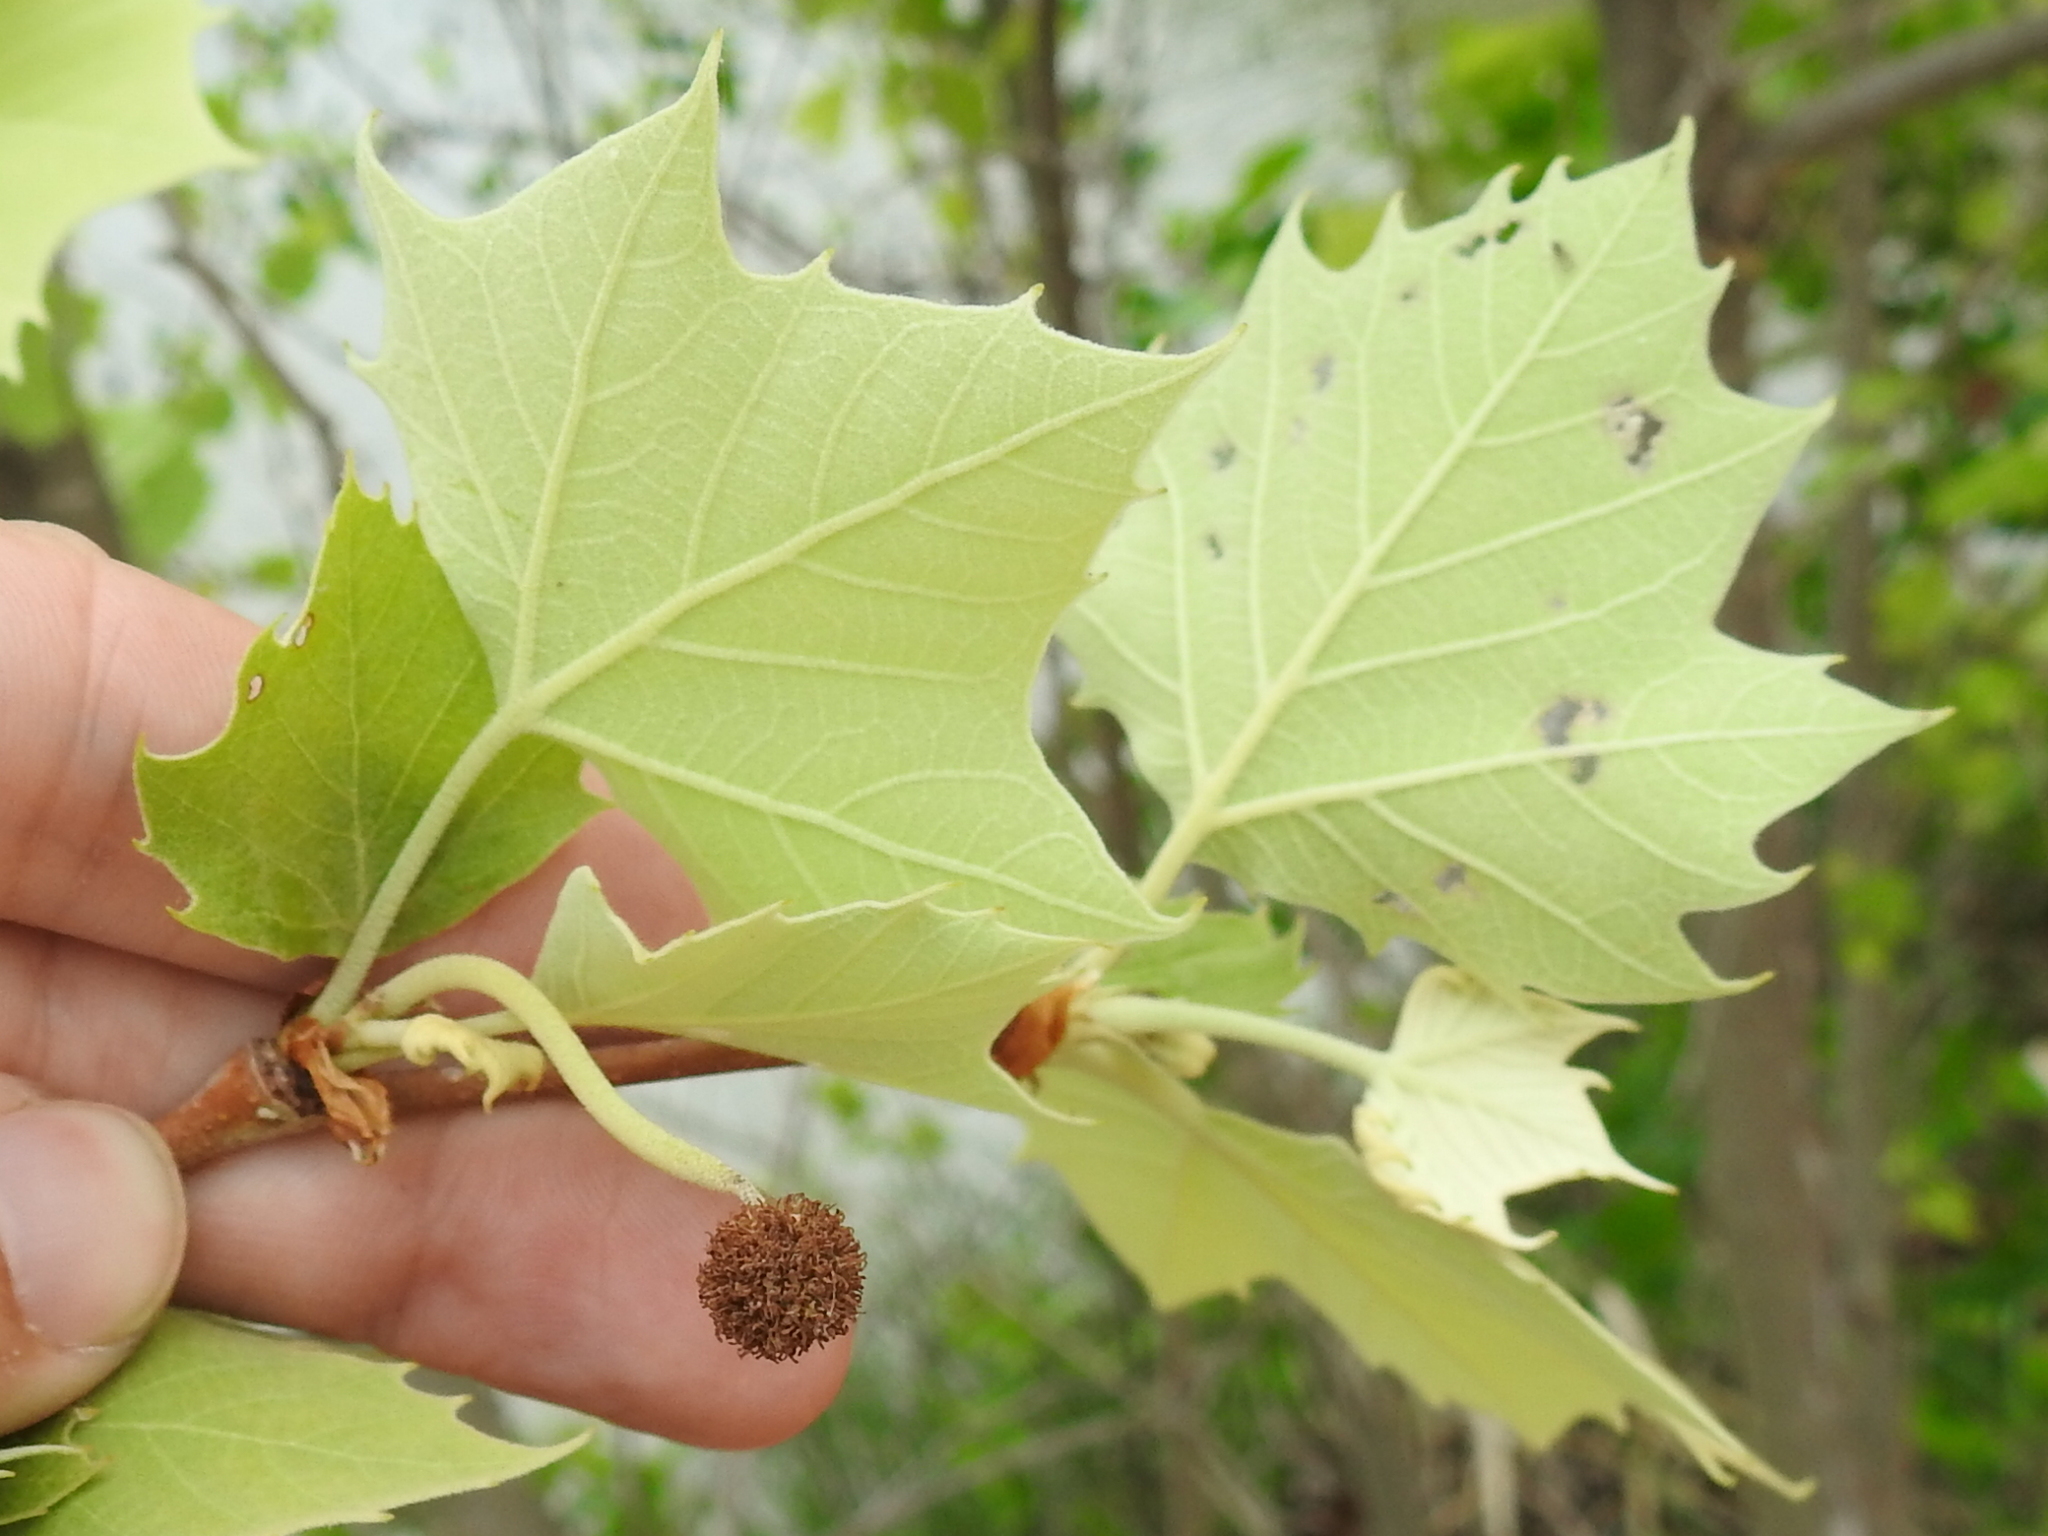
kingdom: Plantae
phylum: Tracheophyta
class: Magnoliopsida
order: Proteales
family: Platanaceae
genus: Platanus
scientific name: Platanus occidentalis
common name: American sycamore
